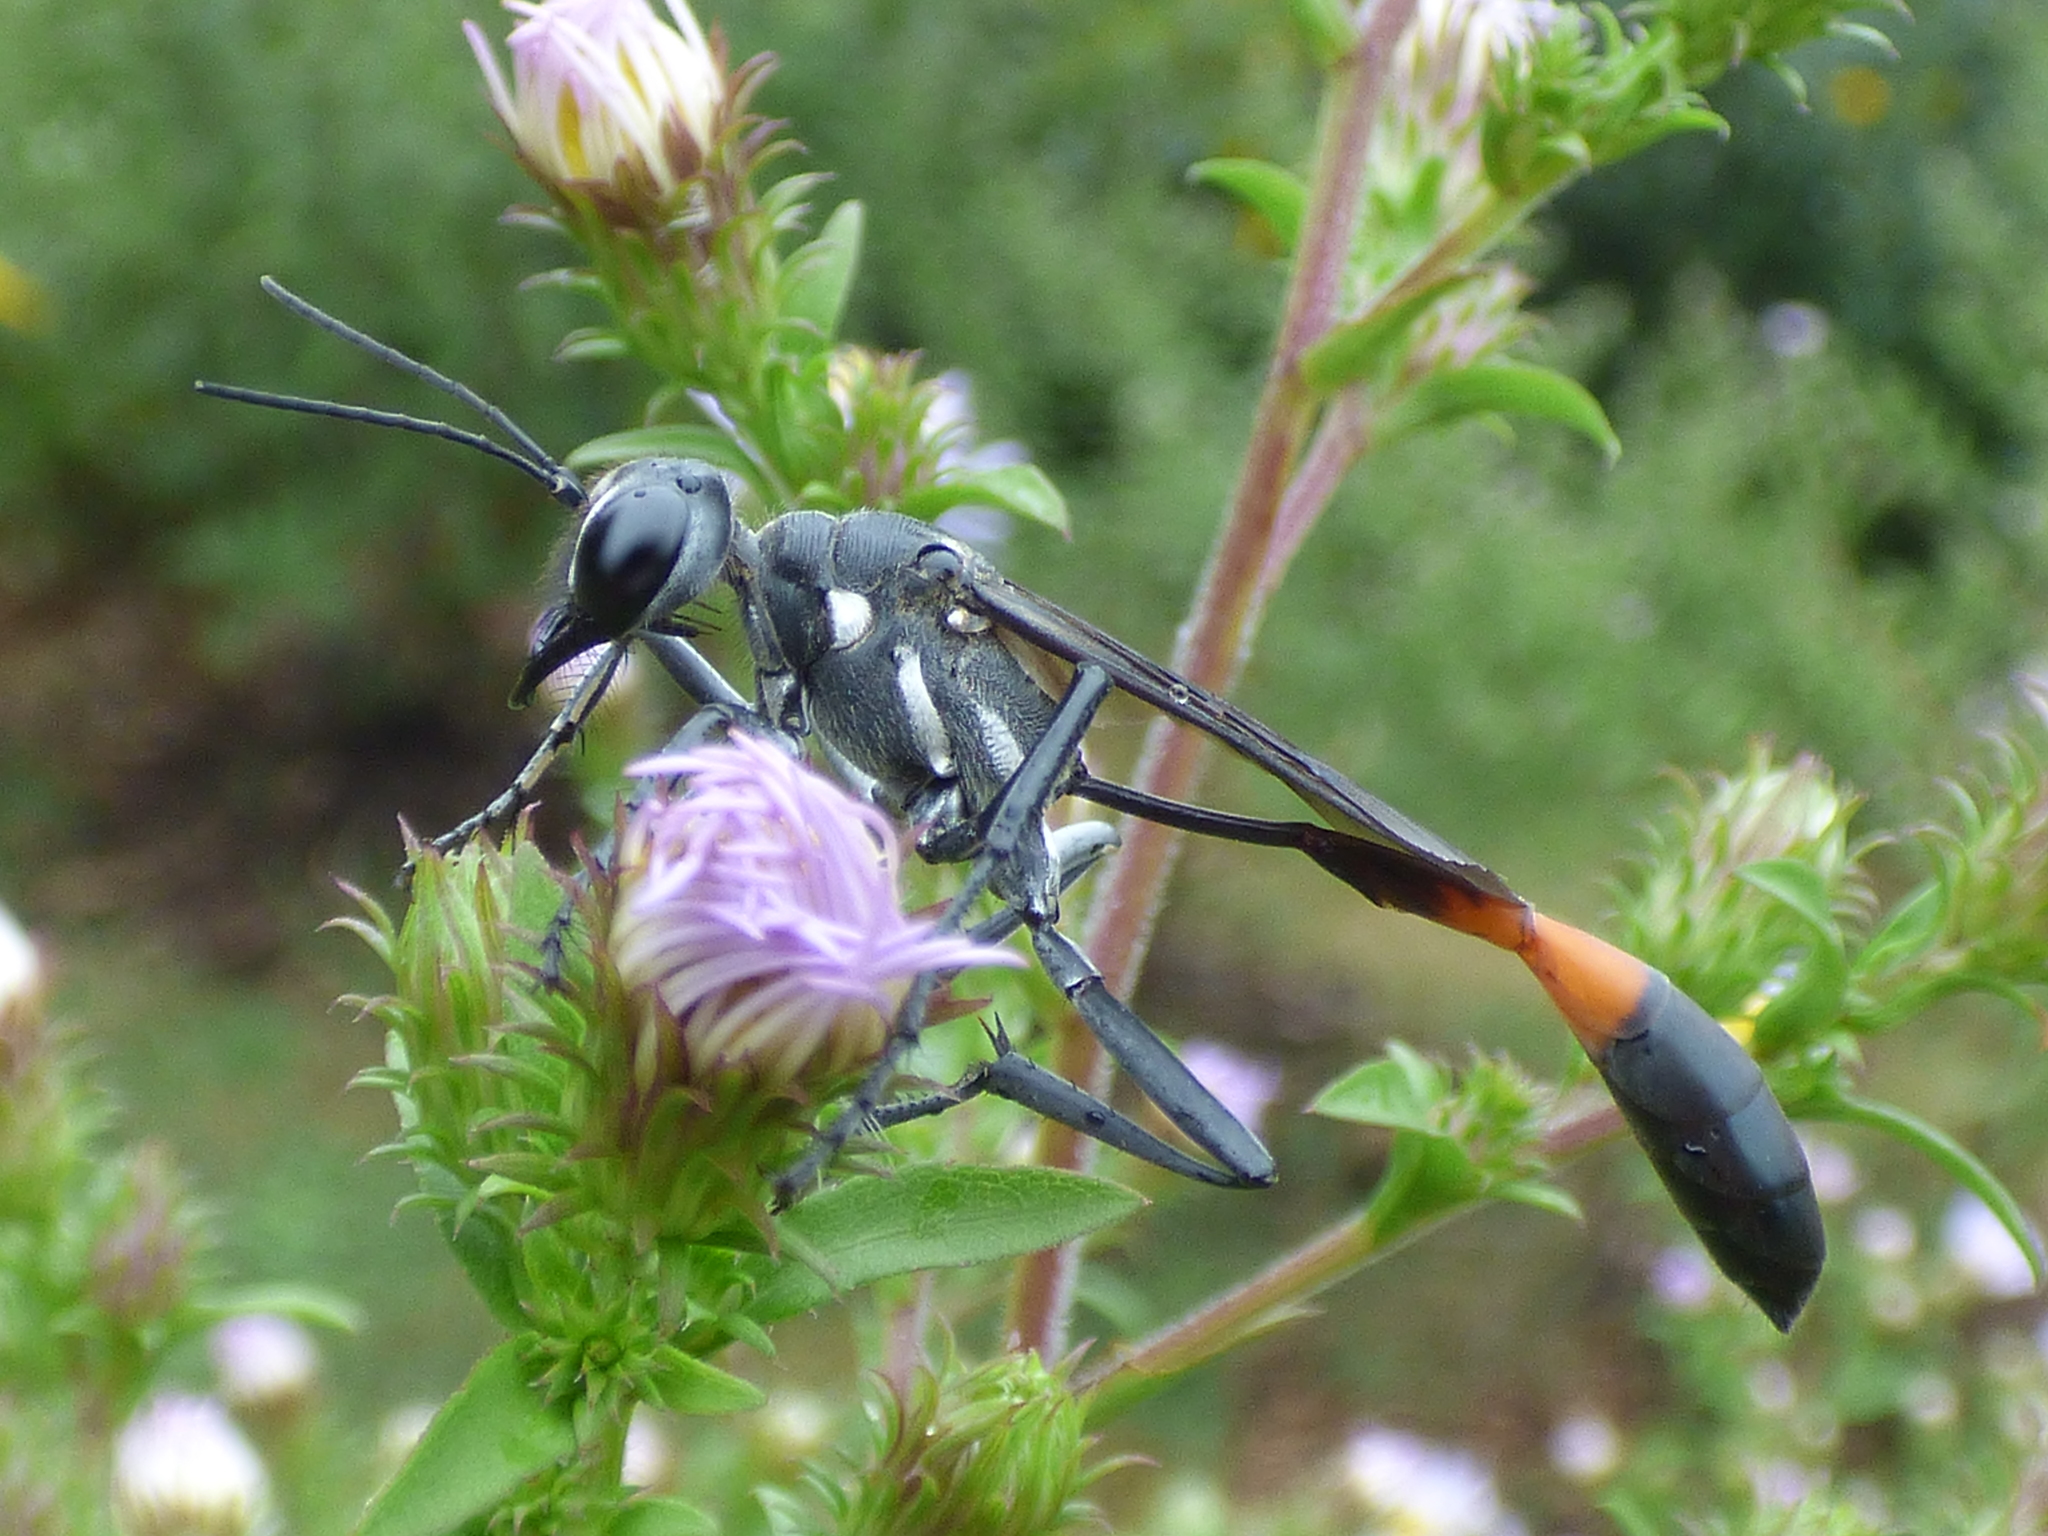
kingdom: Animalia
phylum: Arthropoda
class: Insecta
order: Hymenoptera
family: Sphecidae
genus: Ammophila
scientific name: Ammophila procera
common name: Common thread-waisted wasp
